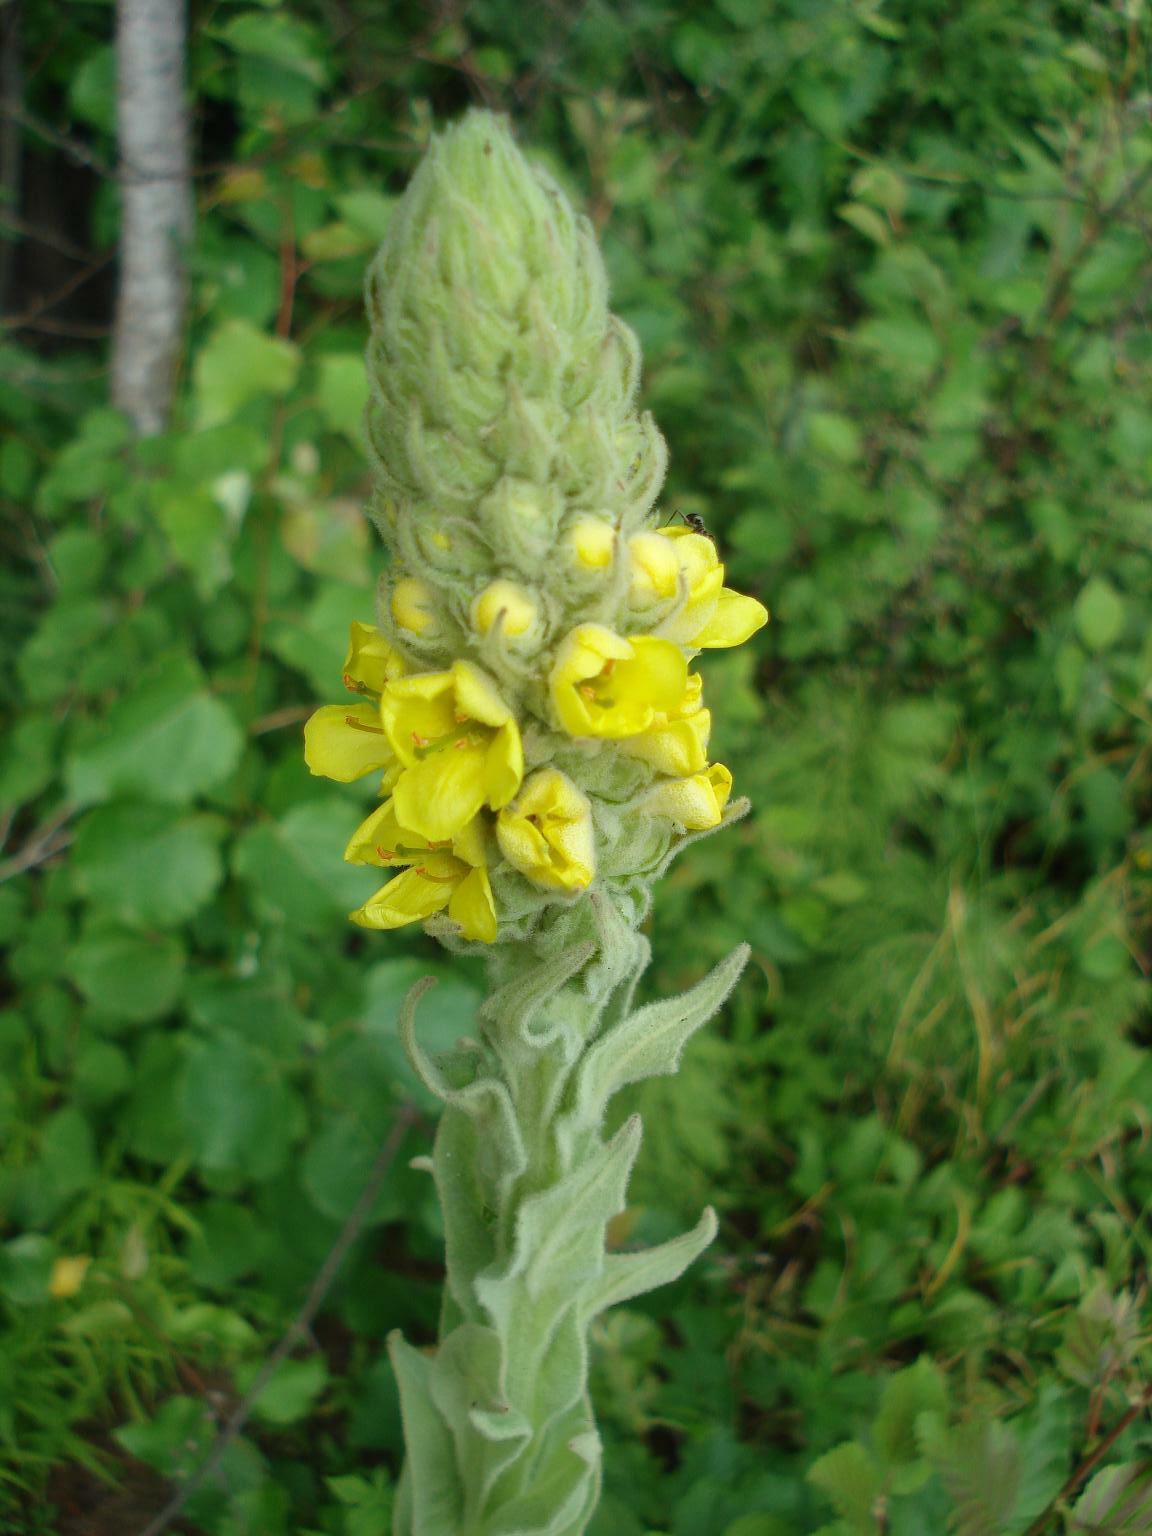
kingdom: Plantae
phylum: Tracheophyta
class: Magnoliopsida
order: Lamiales
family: Scrophulariaceae
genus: Verbascum
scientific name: Verbascum thapsus
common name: Common mullein
